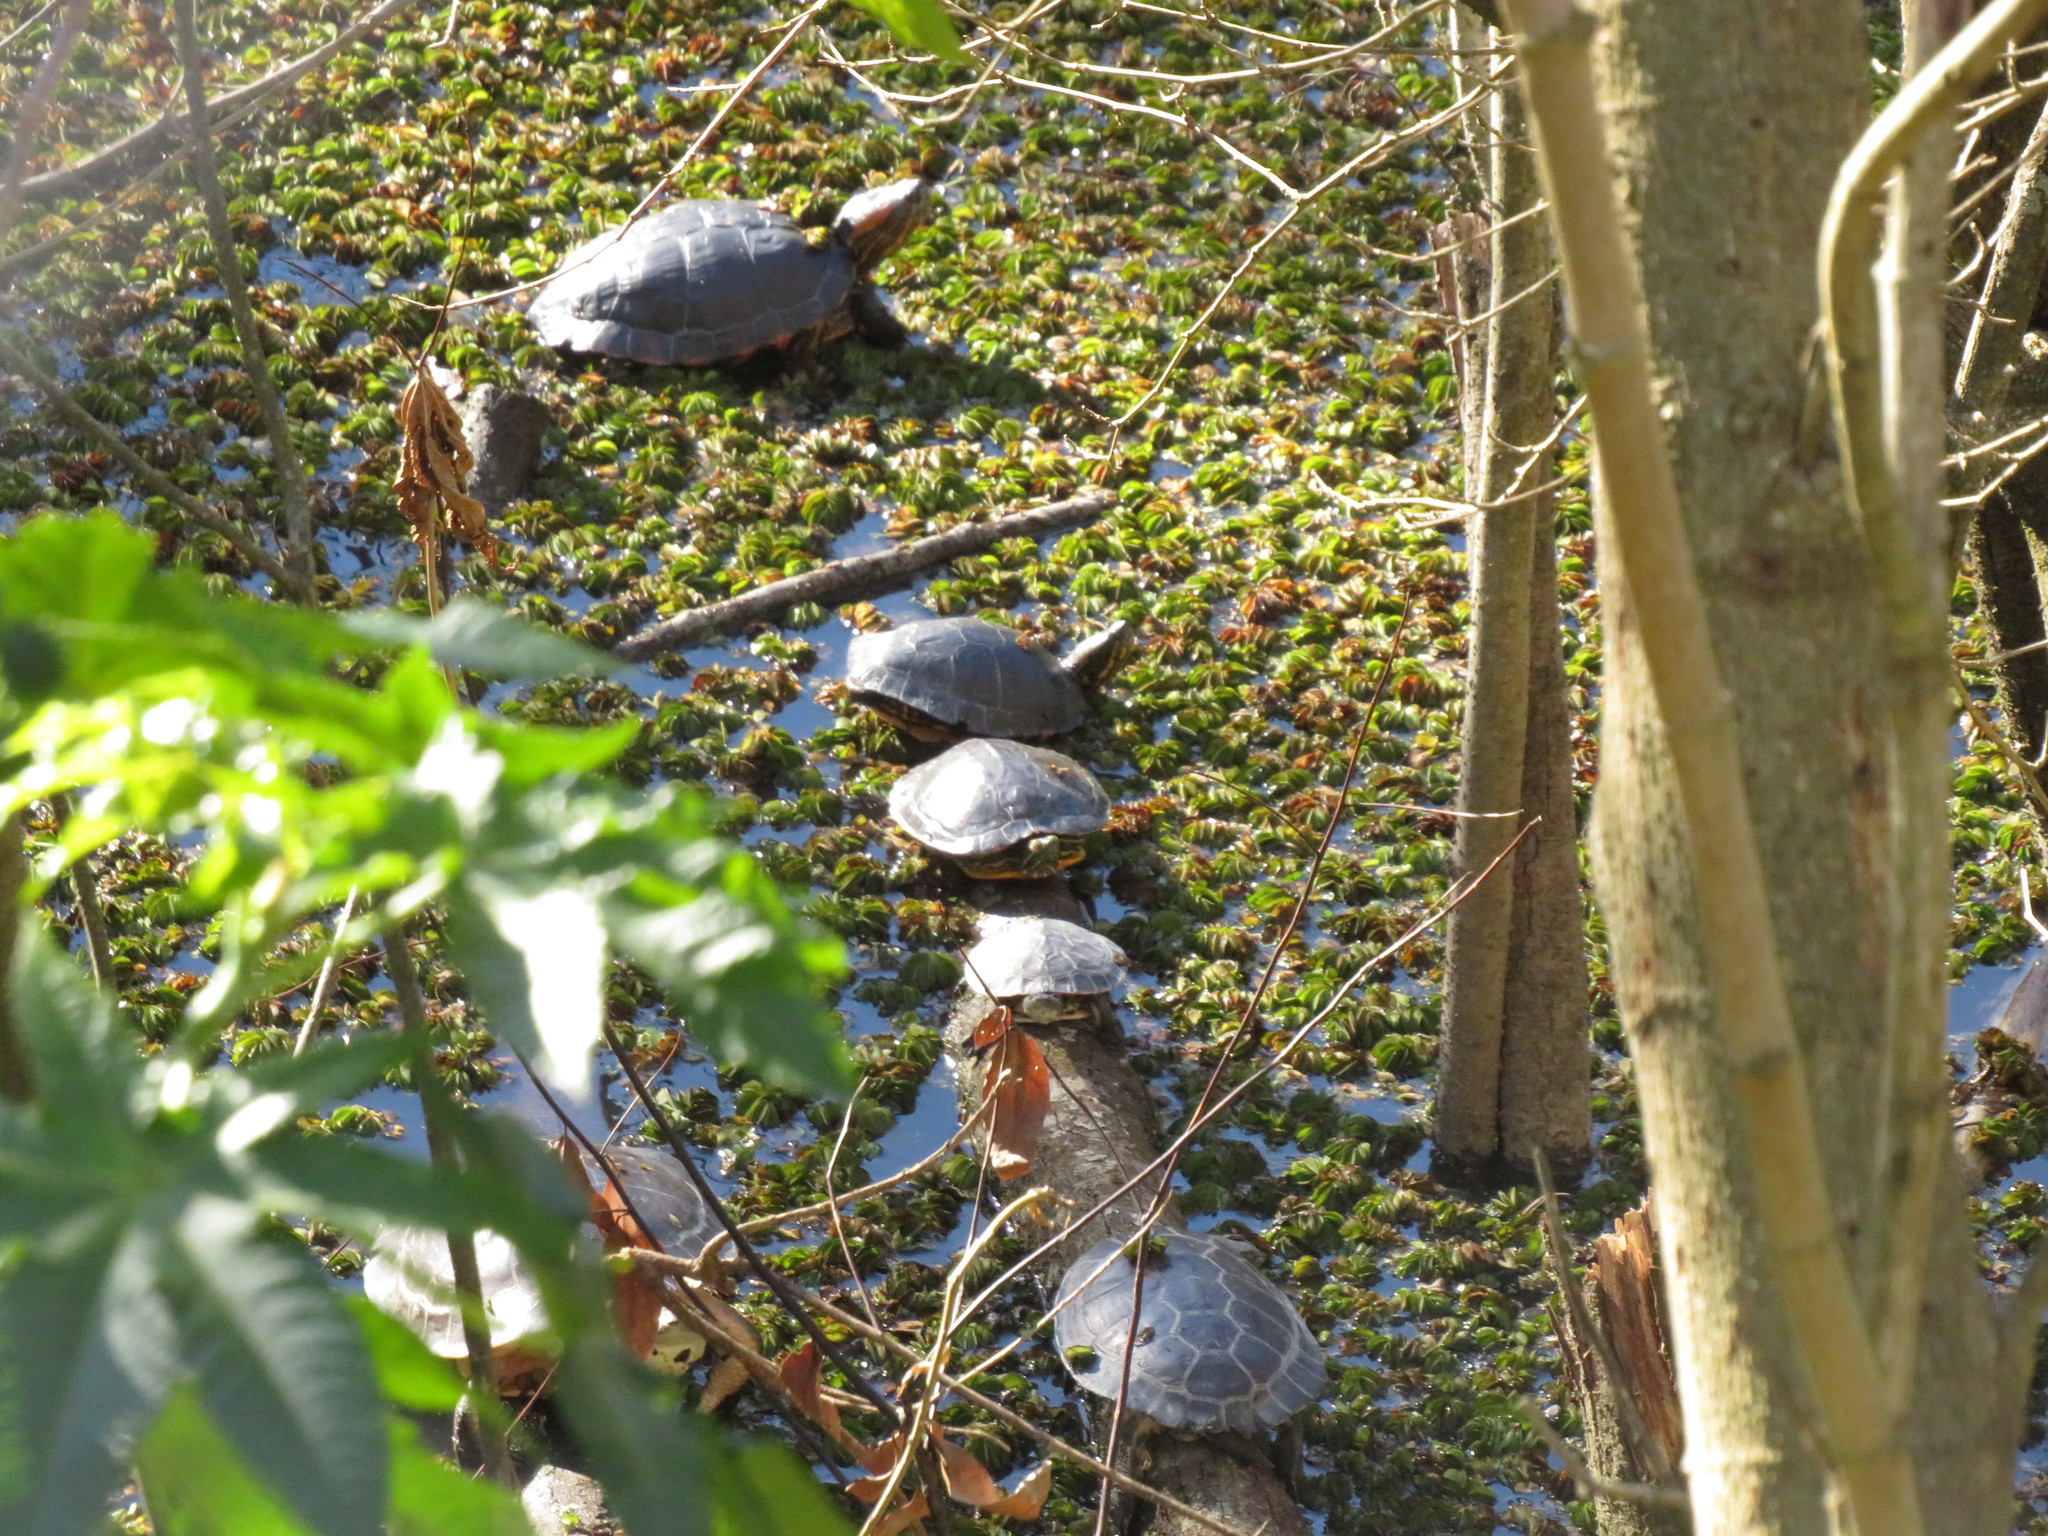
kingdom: Animalia
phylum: Chordata
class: Testudines
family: Chelidae
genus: Phrynops
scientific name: Phrynops hilarii
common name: Side-necked turtle of saint hillaire
